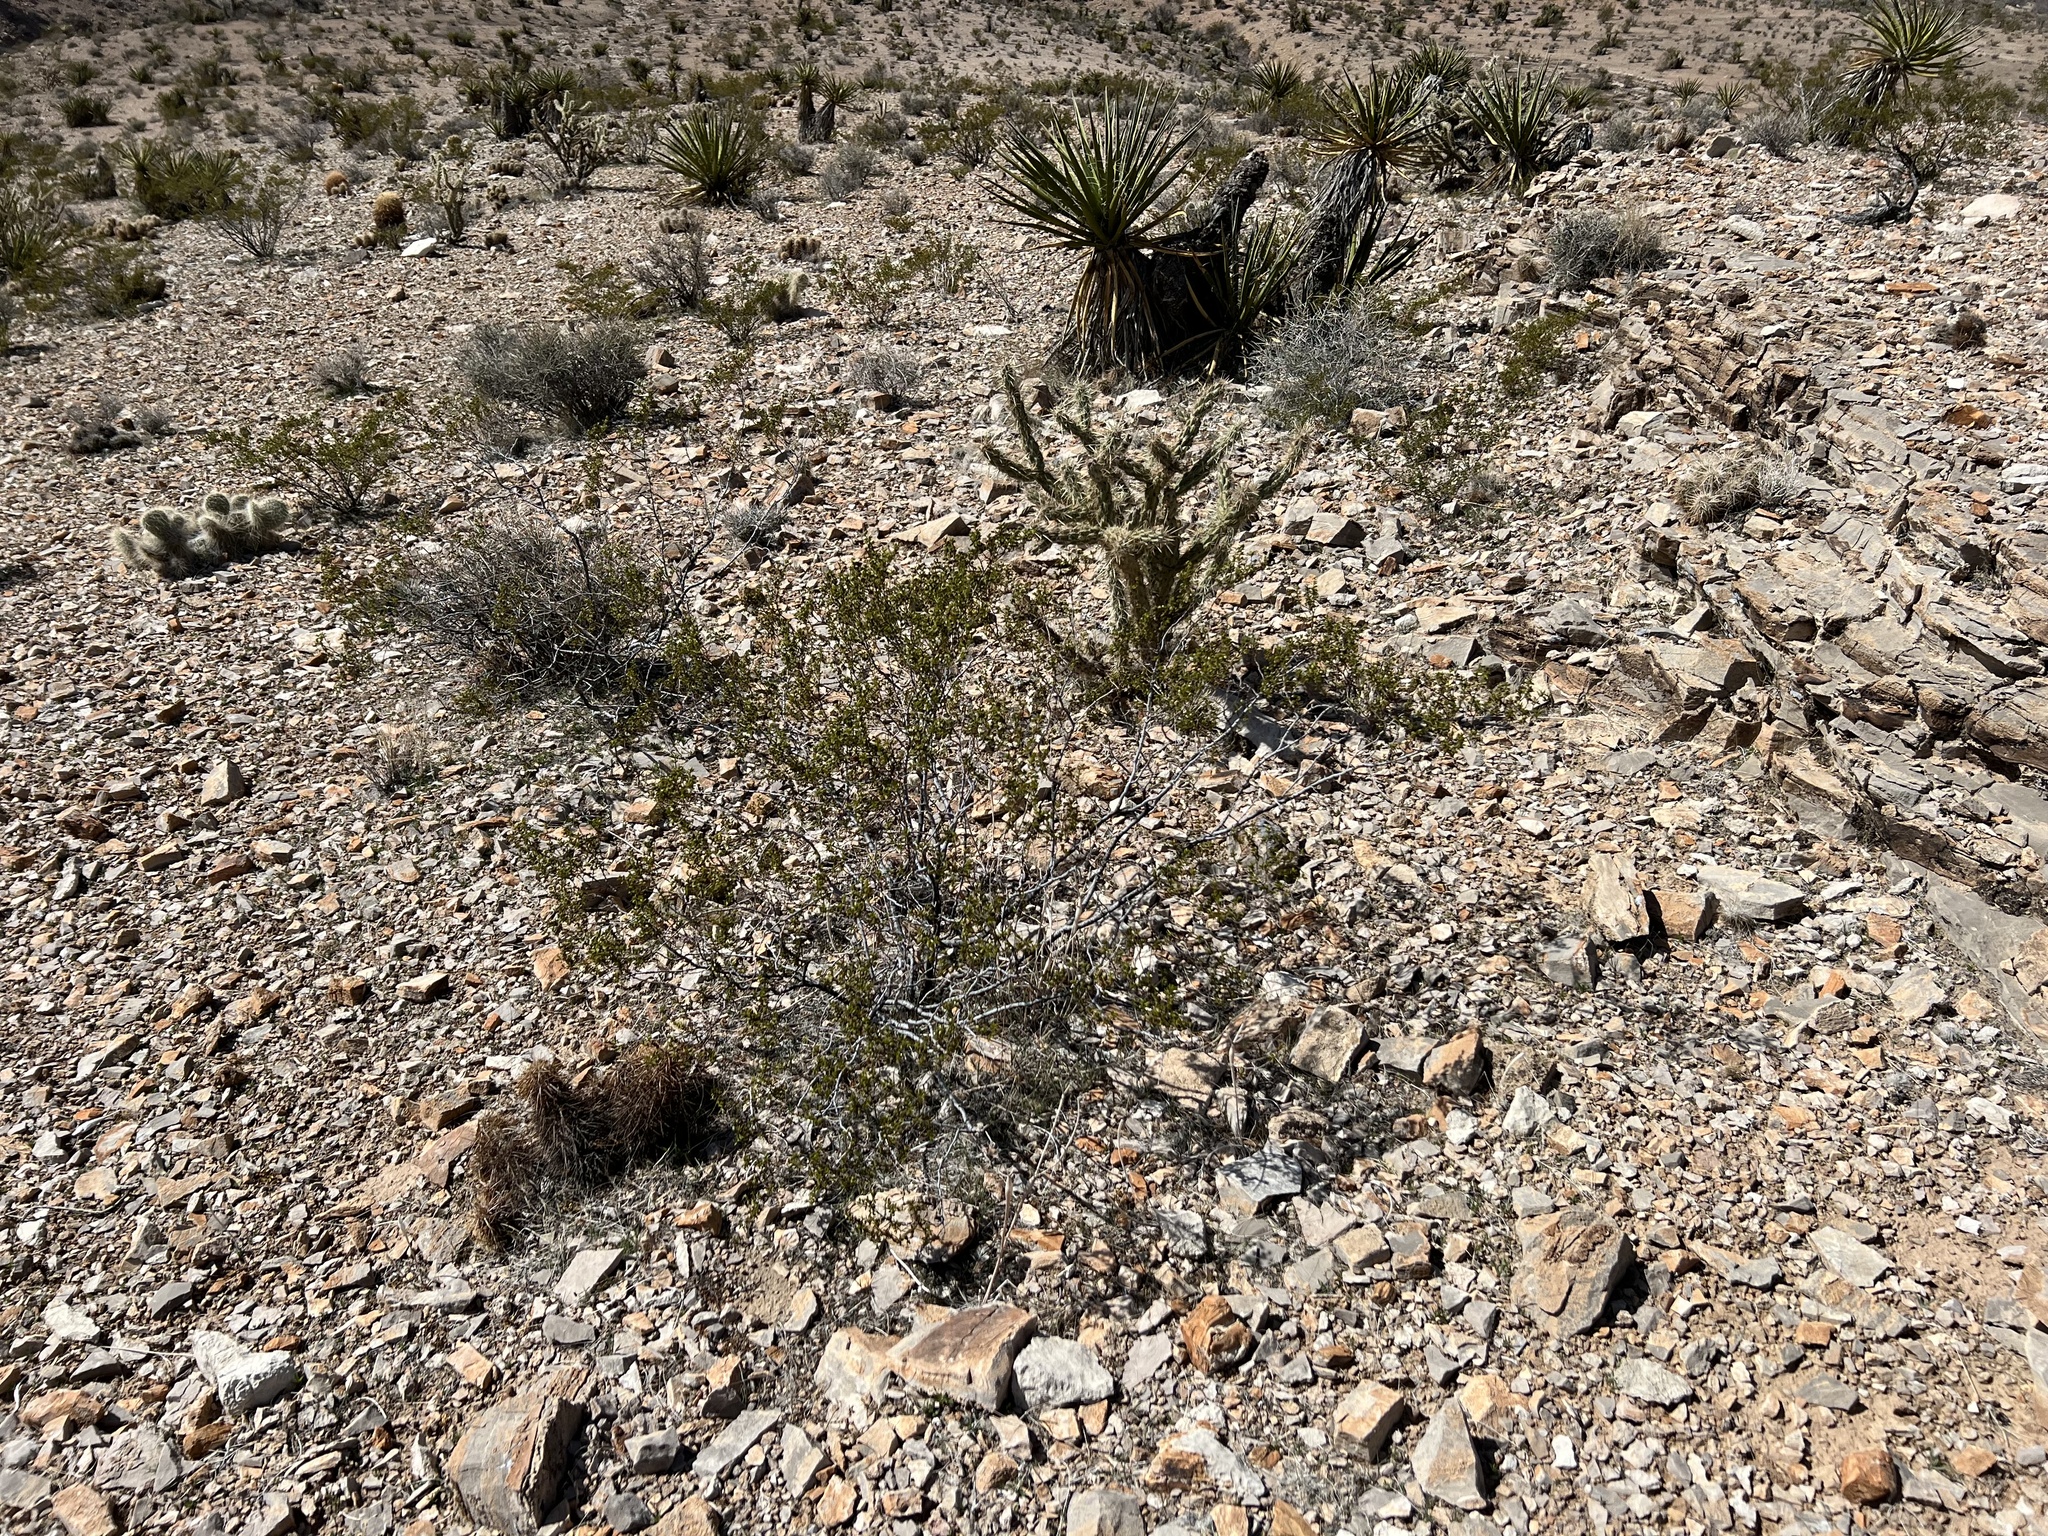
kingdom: Plantae
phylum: Tracheophyta
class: Magnoliopsida
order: Zygophyllales
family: Zygophyllaceae
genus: Larrea
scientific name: Larrea tridentata
